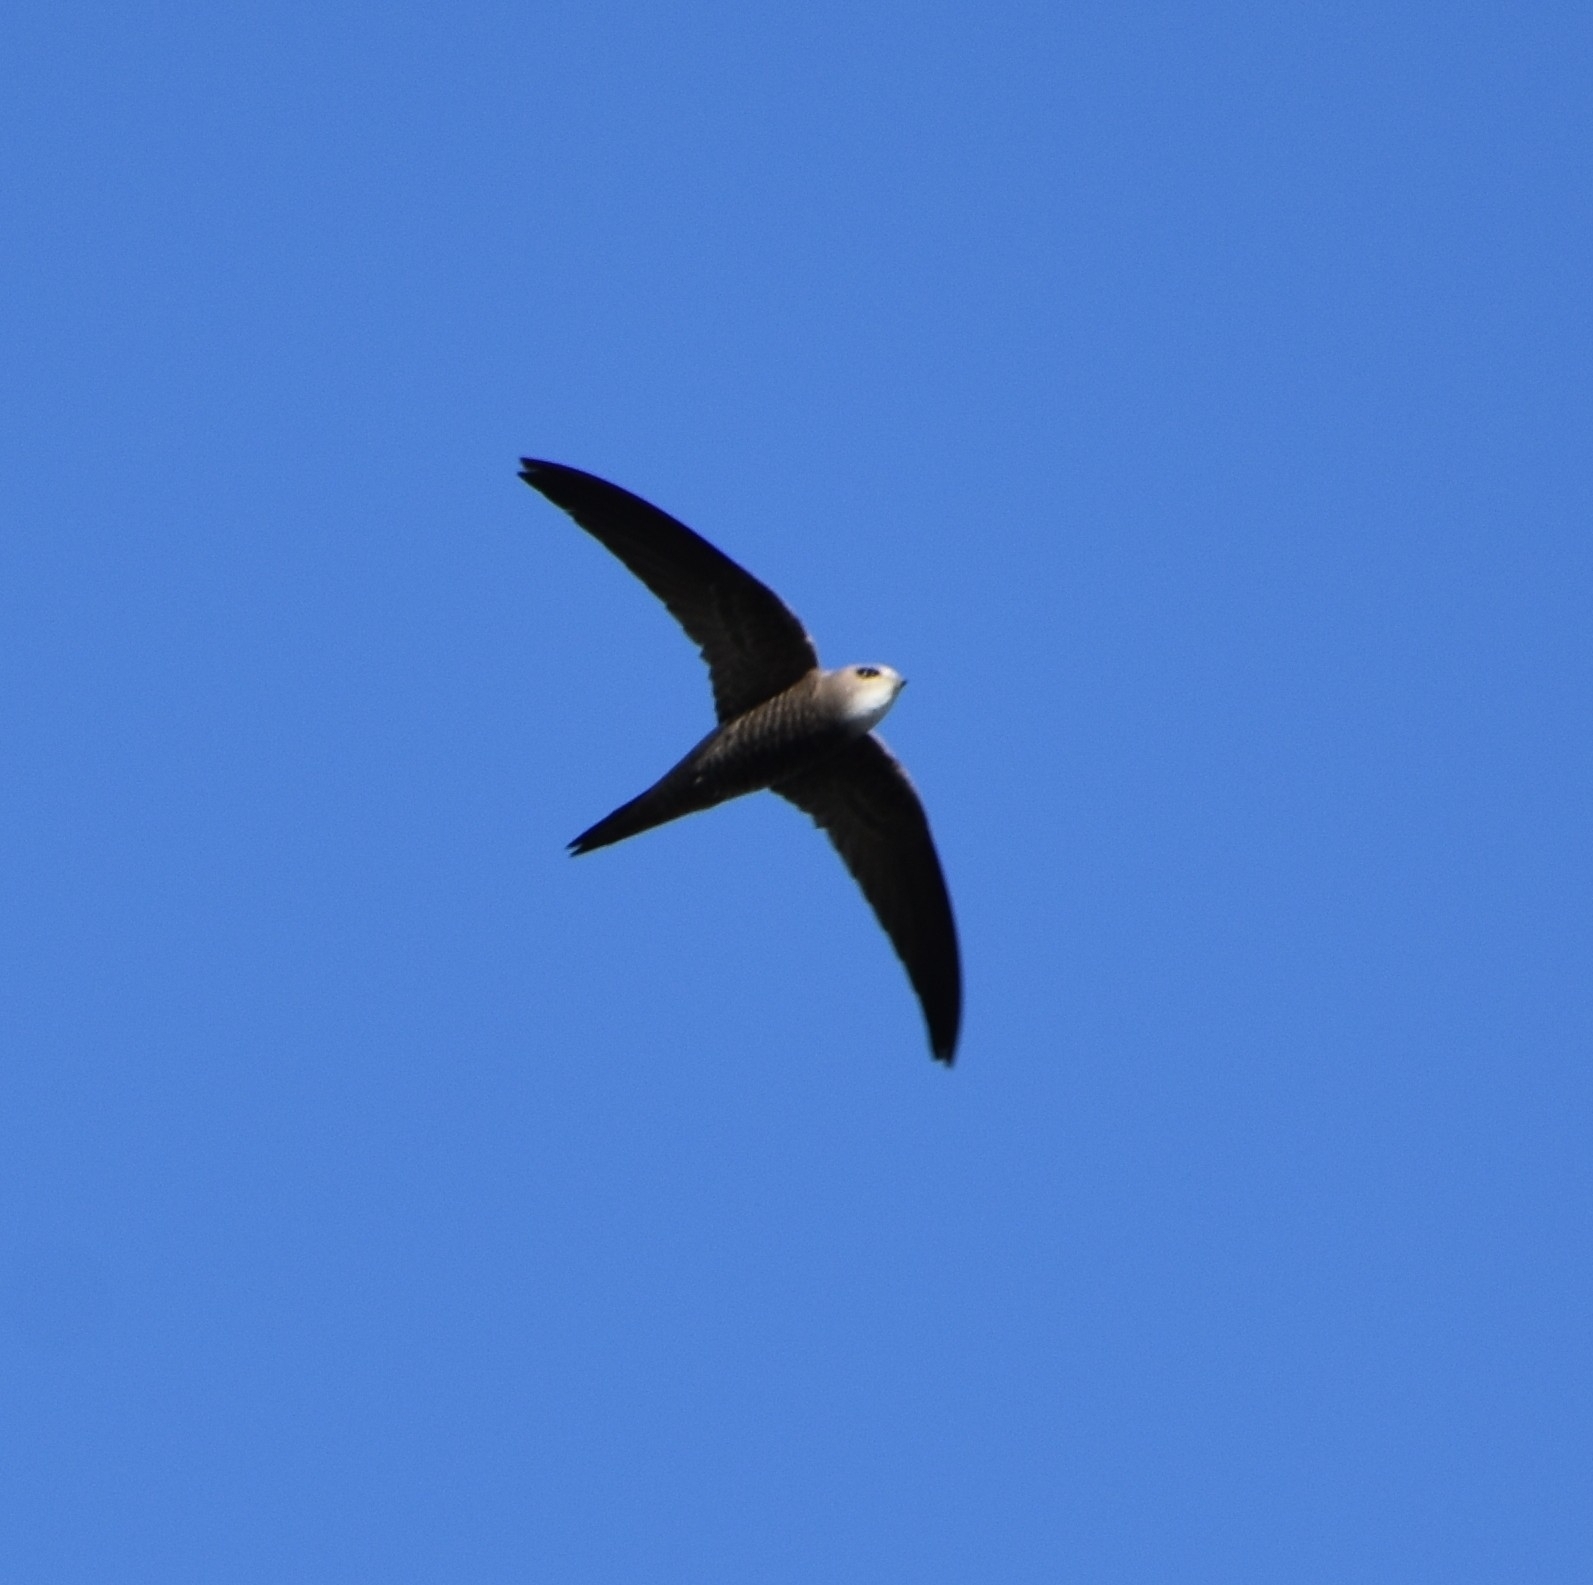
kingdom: Animalia
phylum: Chordata
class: Aves
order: Apodiformes
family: Apodidae
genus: Apus
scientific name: Apus pallidus
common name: Pallid swift
